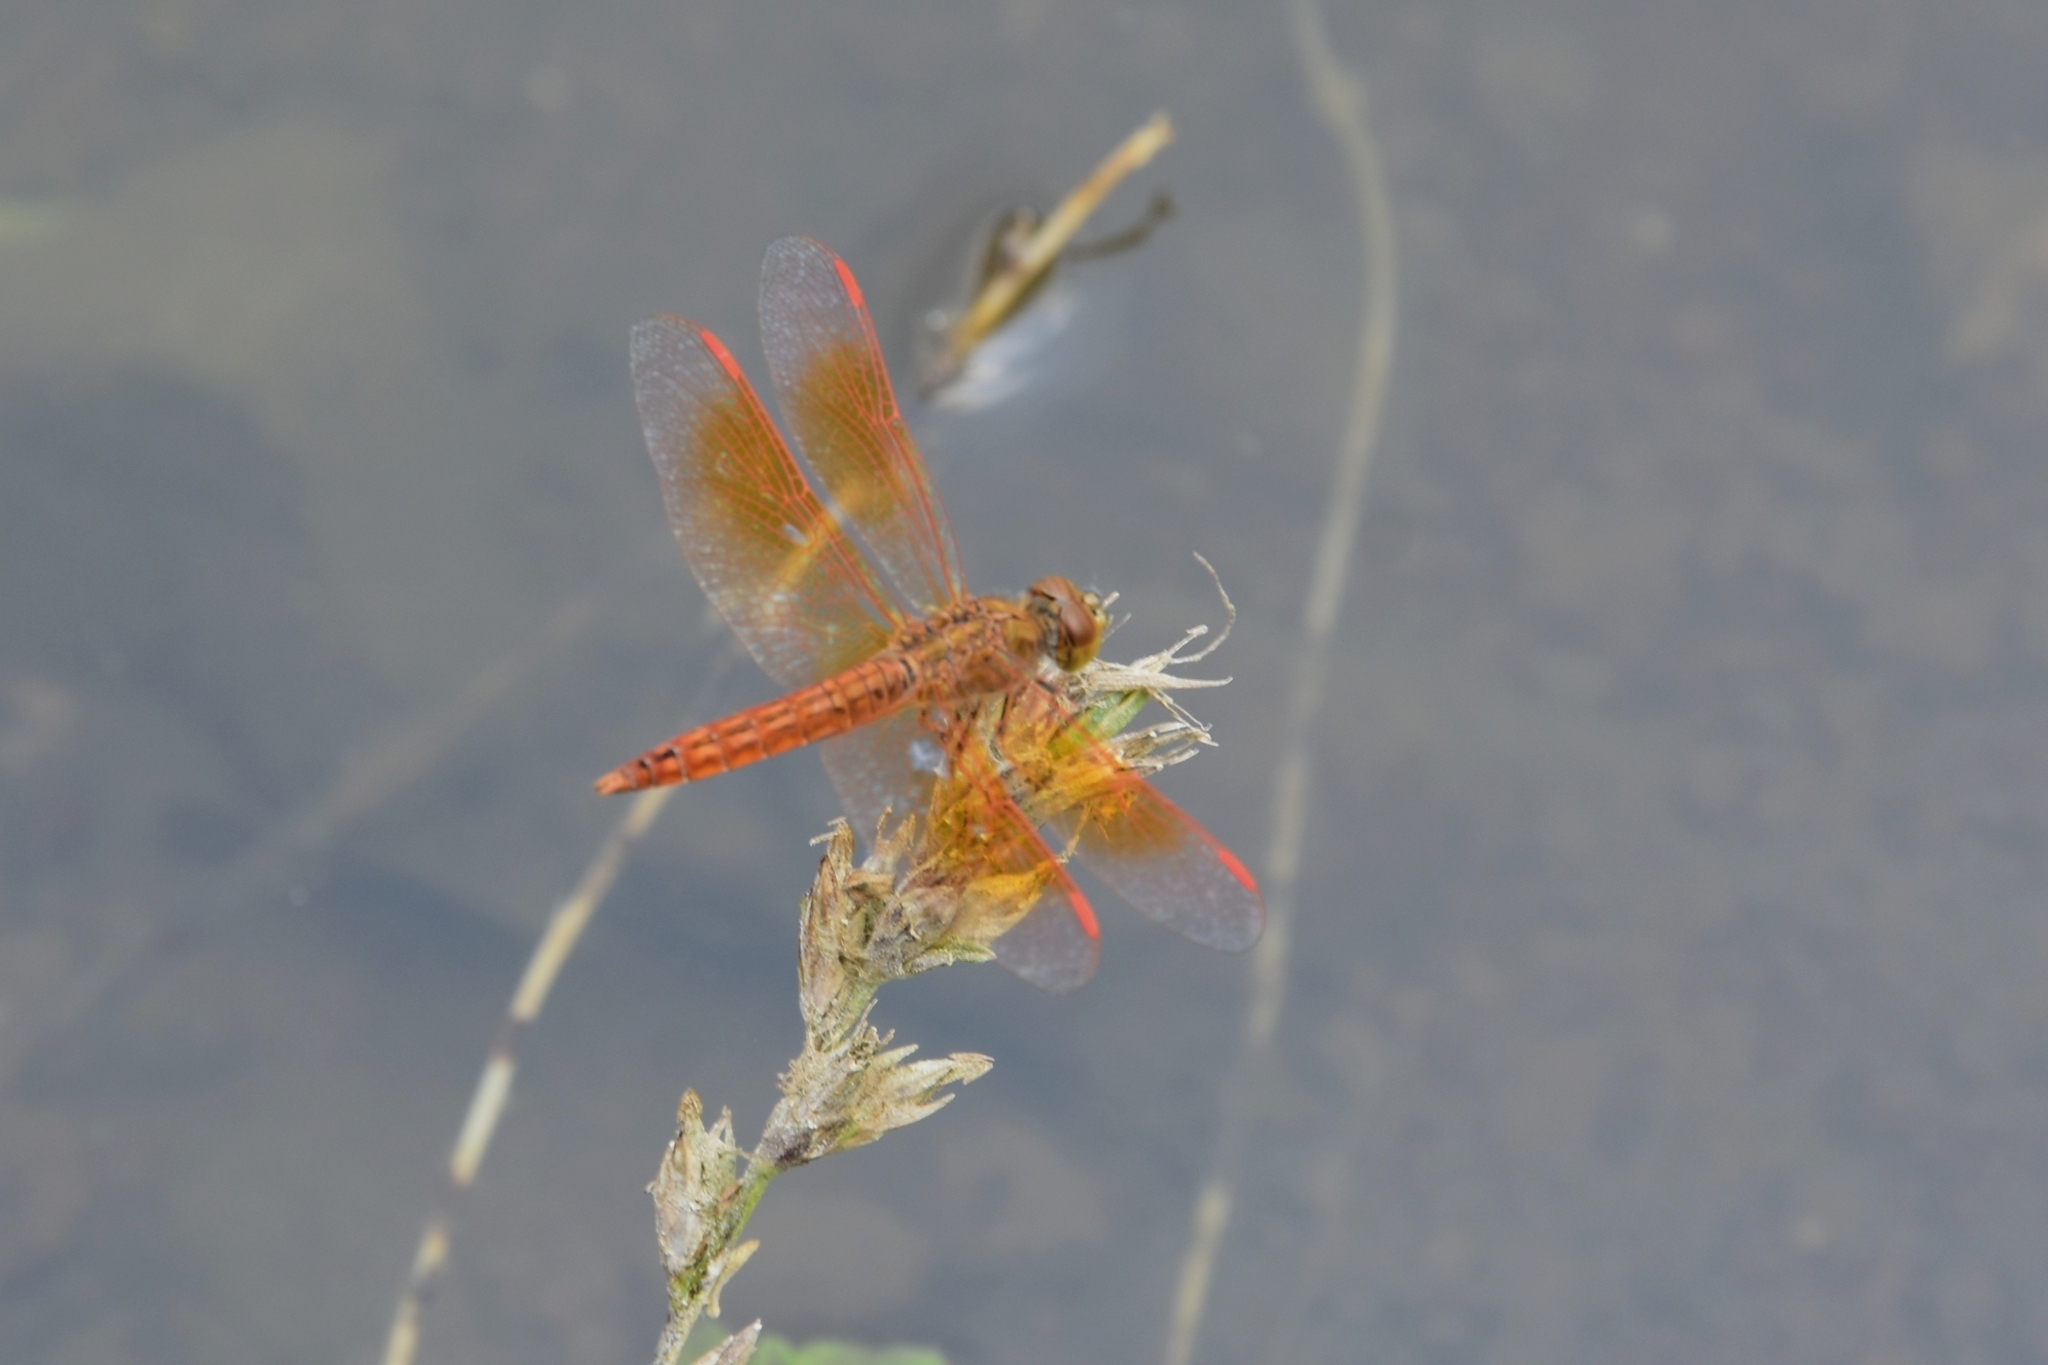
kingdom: Animalia
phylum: Arthropoda
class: Insecta
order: Odonata
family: Libellulidae
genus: Brachythemis
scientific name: Brachythemis contaminata
